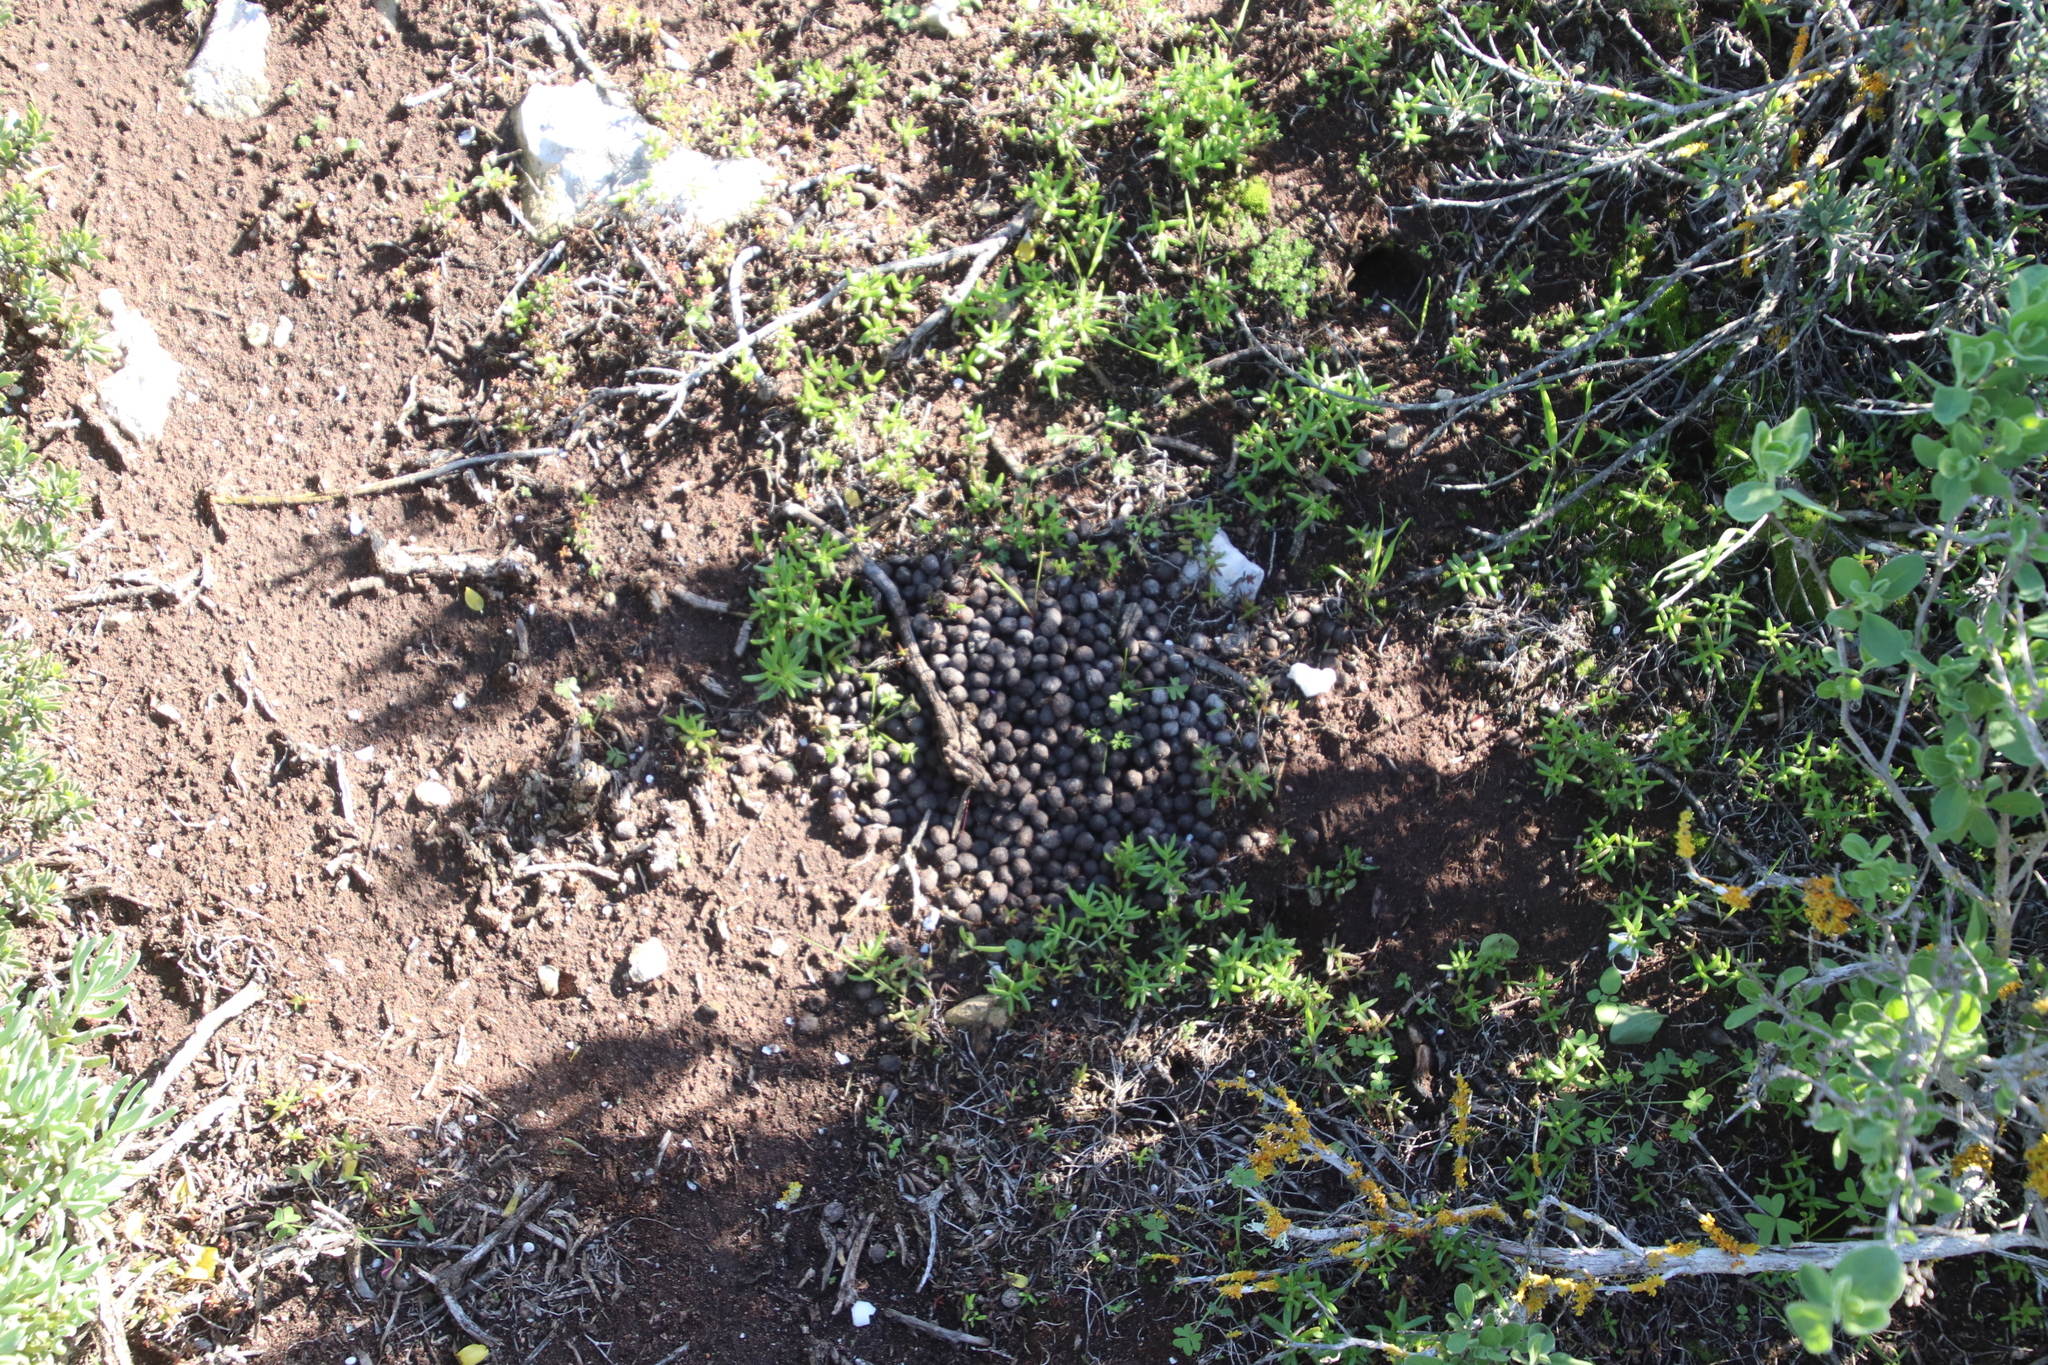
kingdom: Animalia
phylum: Chordata
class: Mammalia
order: Artiodactyla
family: Bovidae
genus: Sylvicapra
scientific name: Sylvicapra grimmia
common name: Bush duiker
